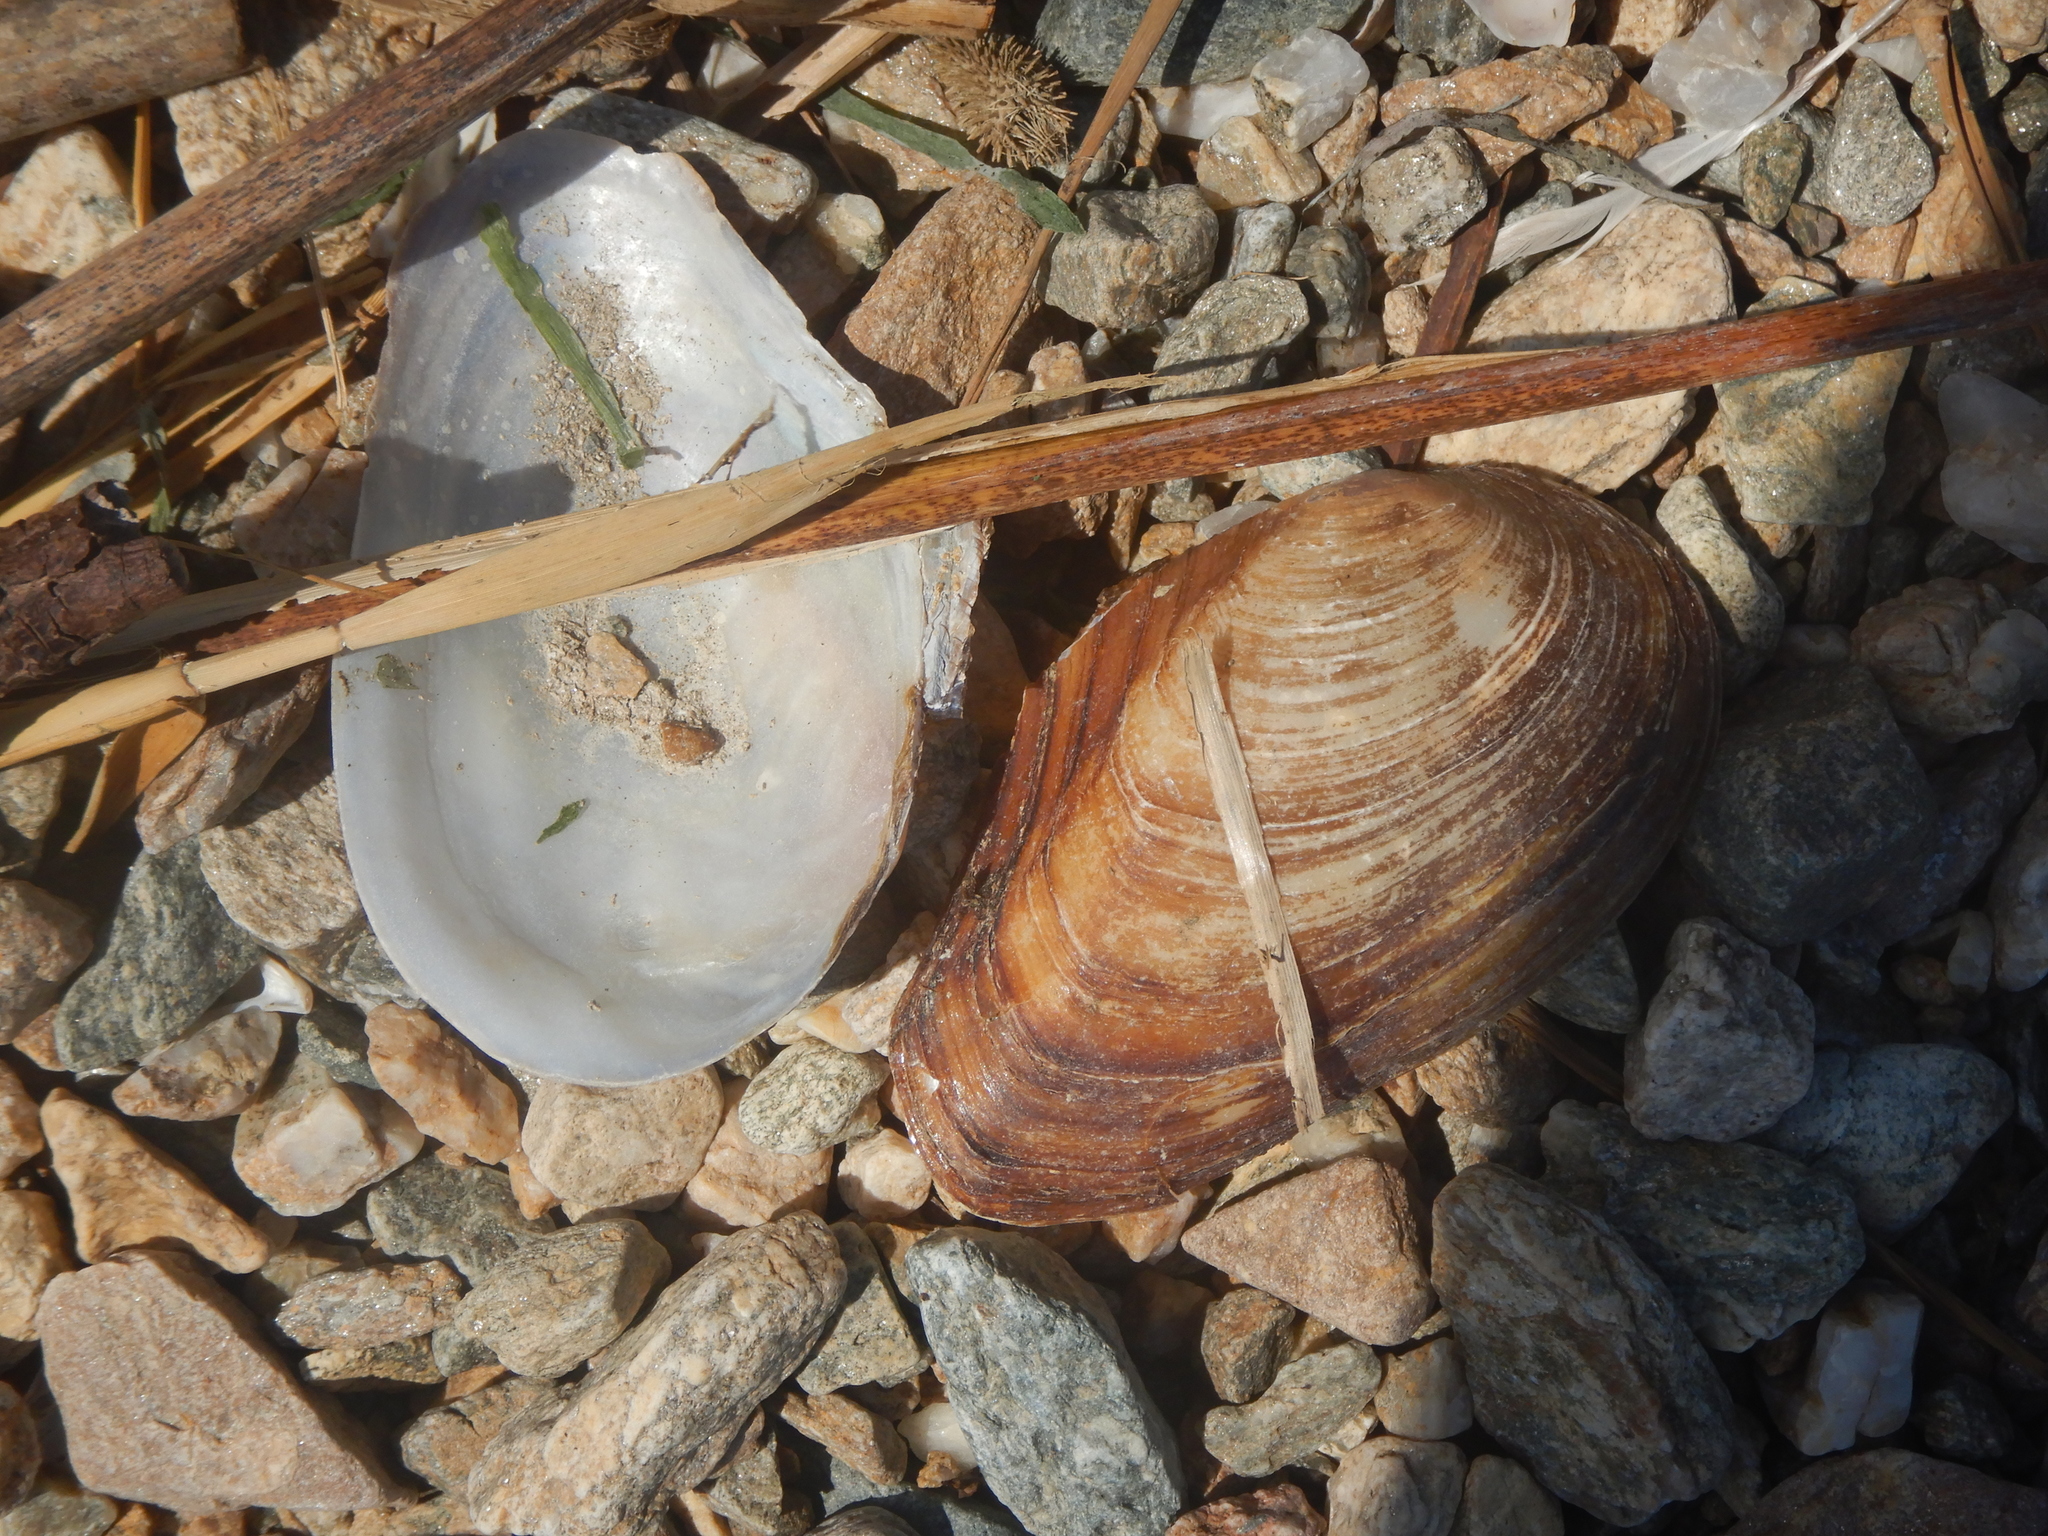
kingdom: Animalia
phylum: Mollusca
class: Bivalvia
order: Unionida
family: Unionidae
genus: Anodonta
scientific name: Anodonta anatina
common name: Duck mussel
